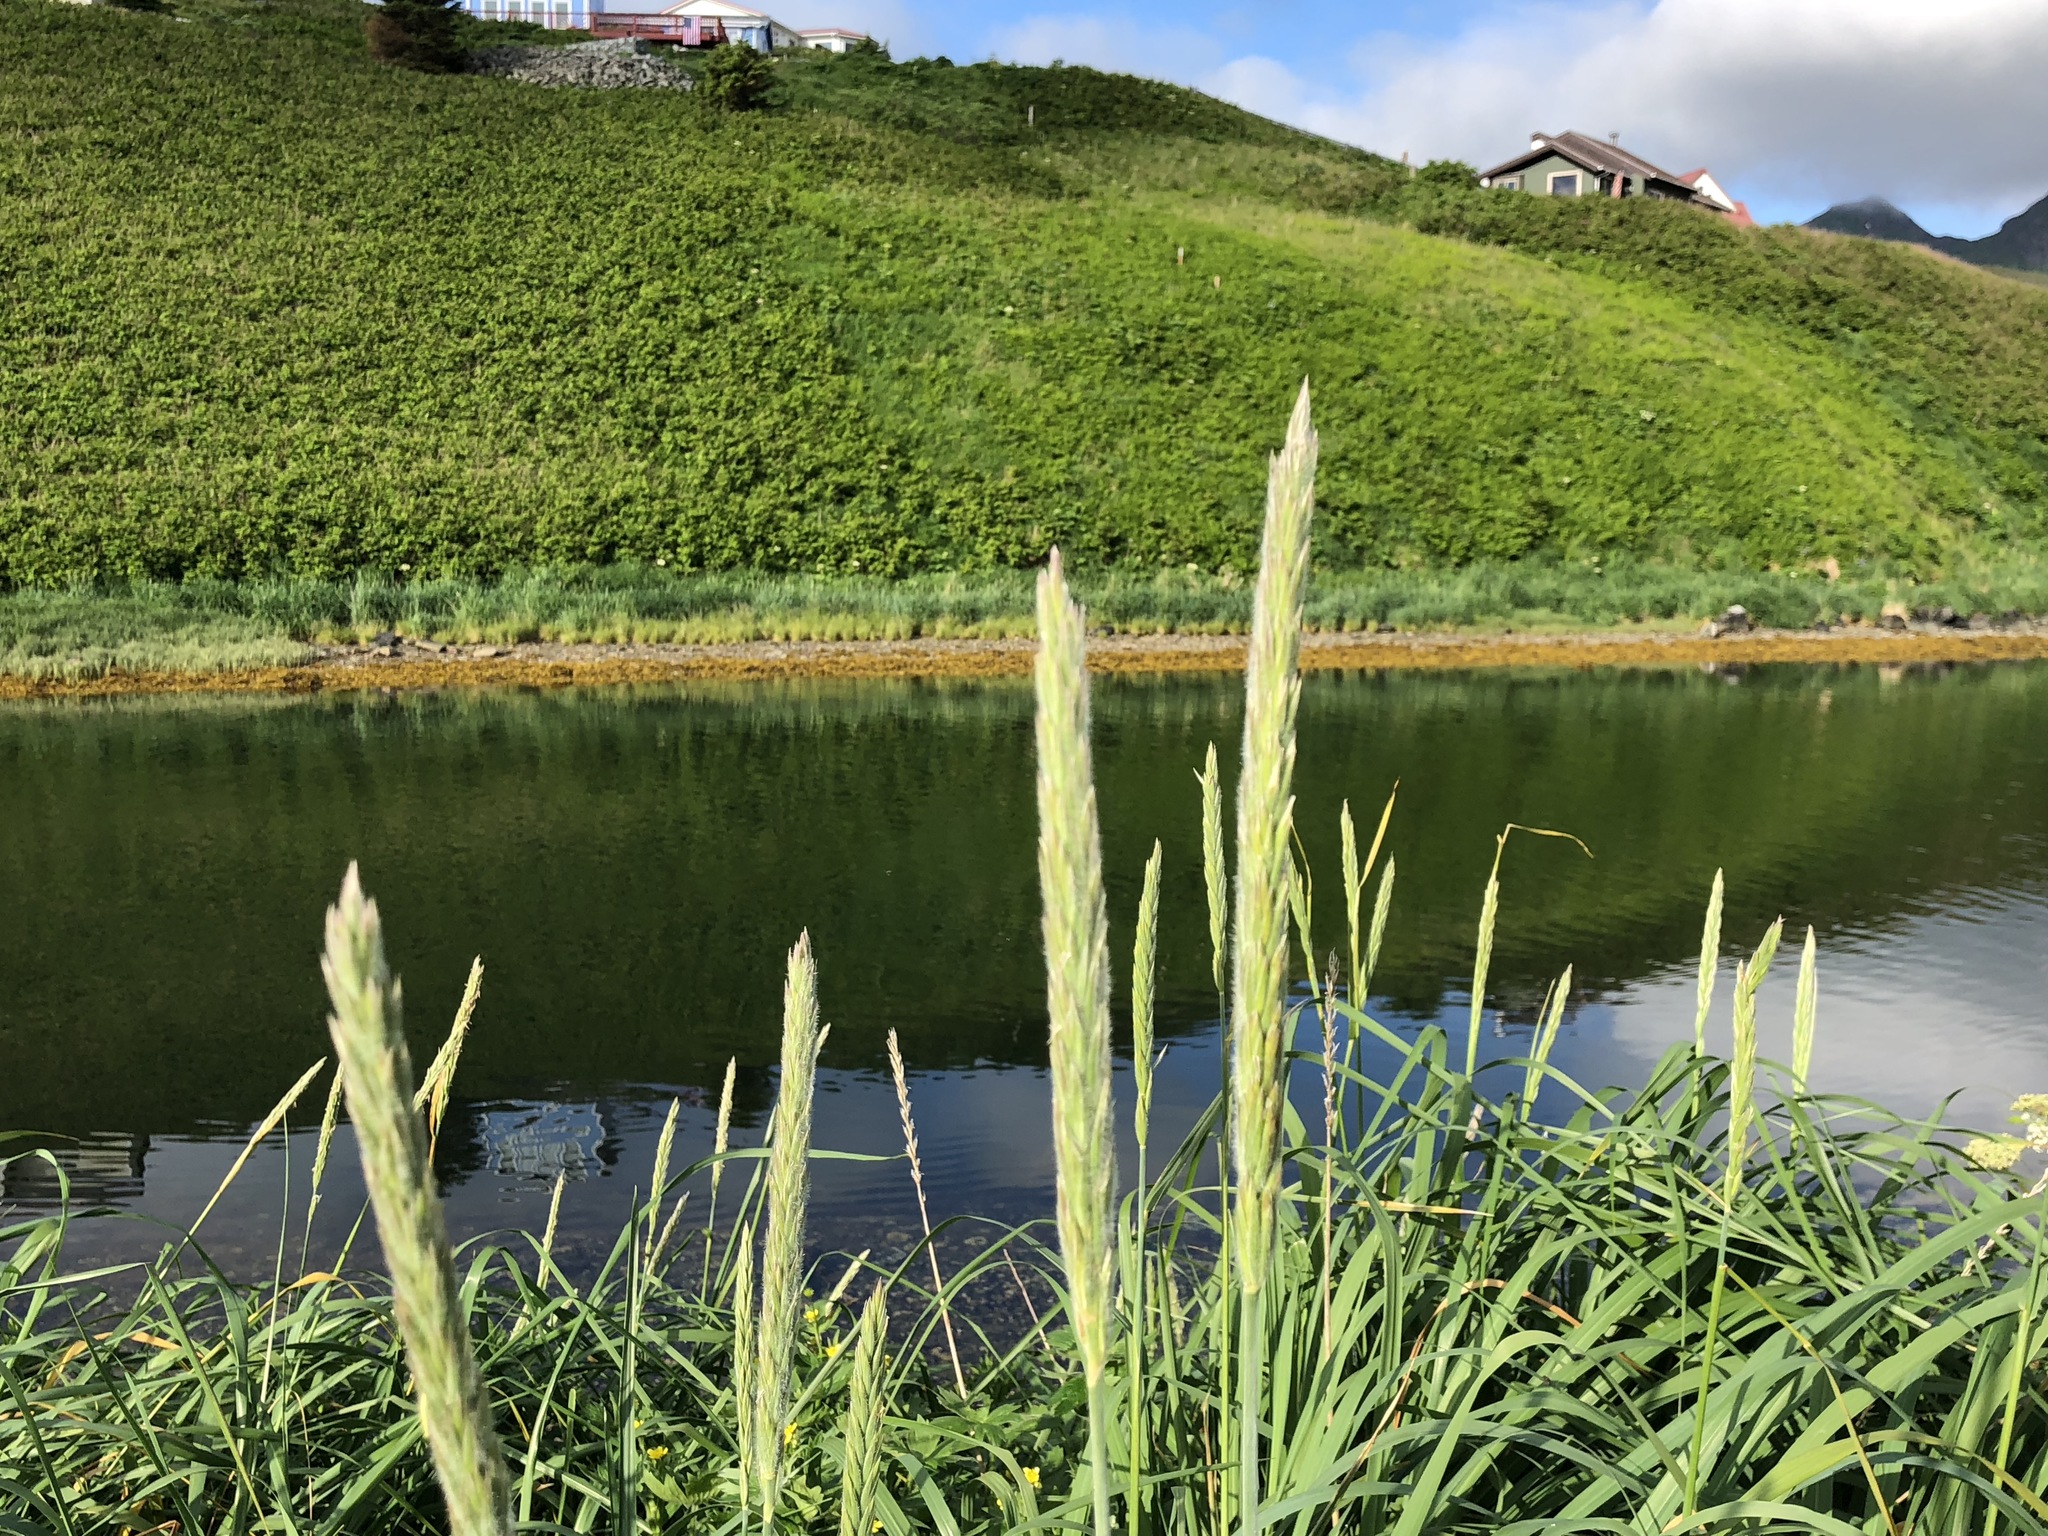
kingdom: Plantae
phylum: Tracheophyta
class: Liliopsida
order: Poales
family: Poaceae
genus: Leymus
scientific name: Leymus mollis
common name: American dune grass
